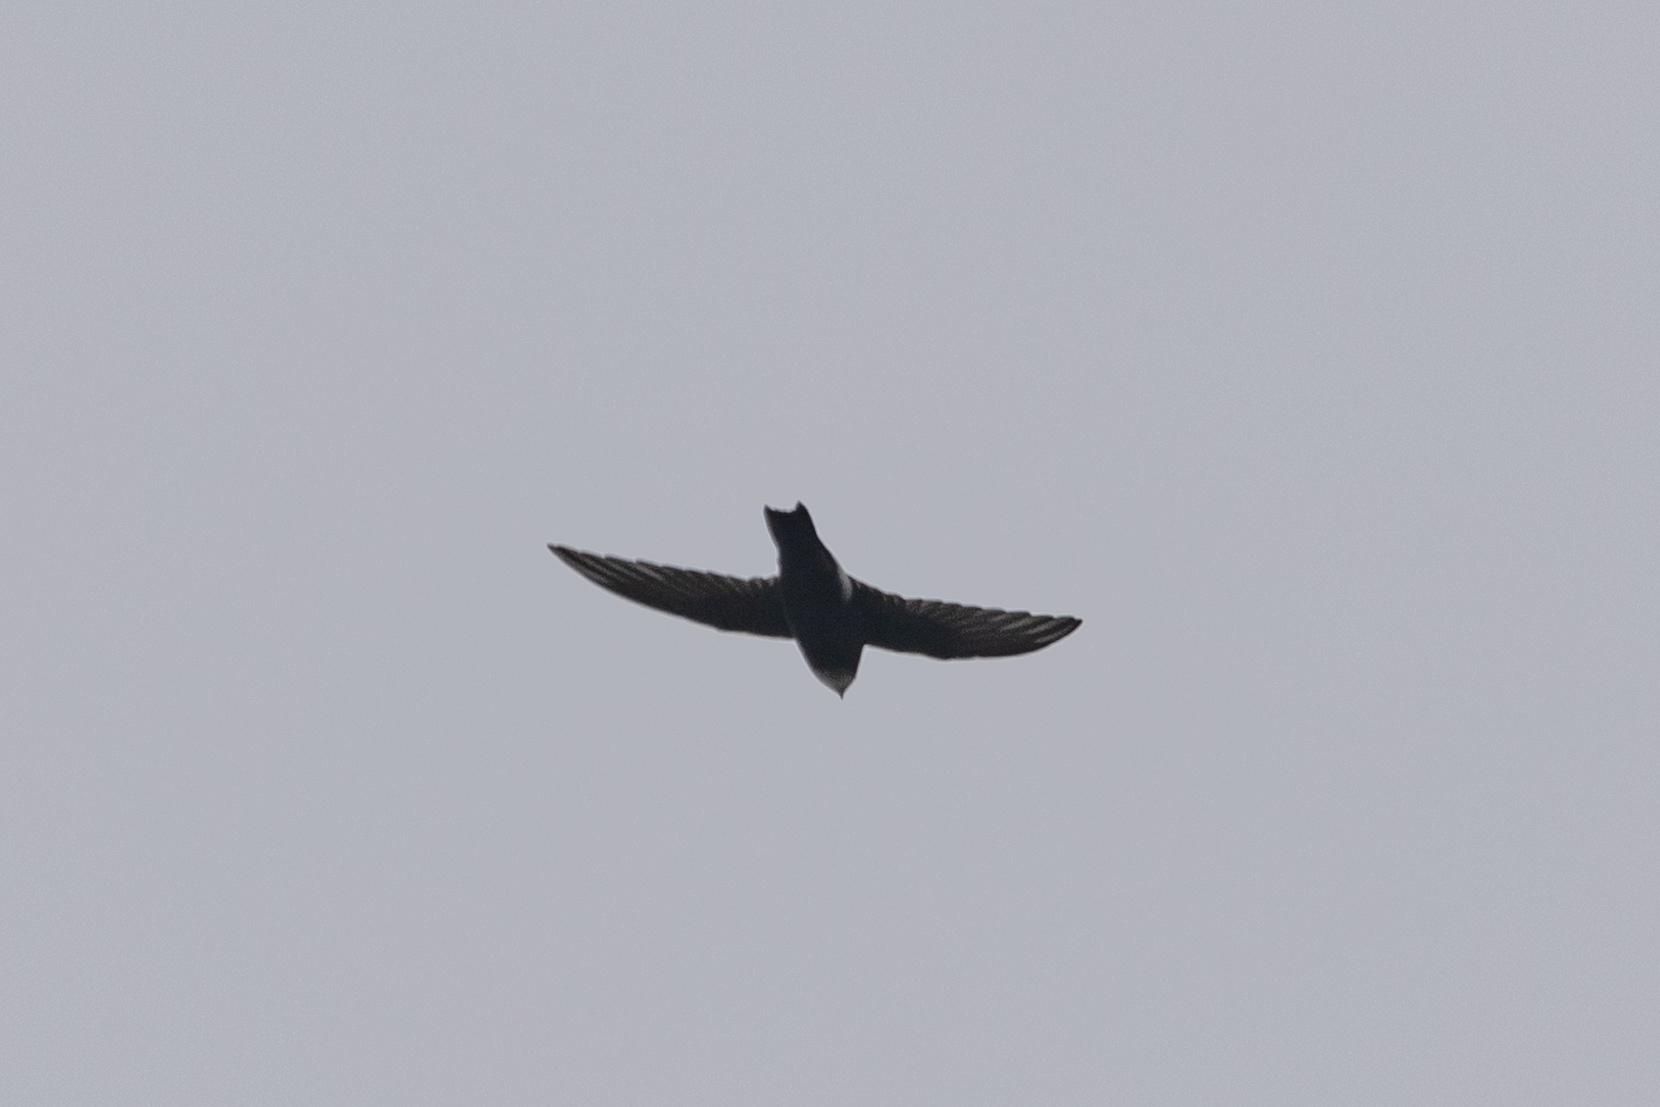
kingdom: Animalia
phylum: Chordata
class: Aves
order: Apodiformes
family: Apodidae
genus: Apus
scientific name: Apus nipalensis
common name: House swift
